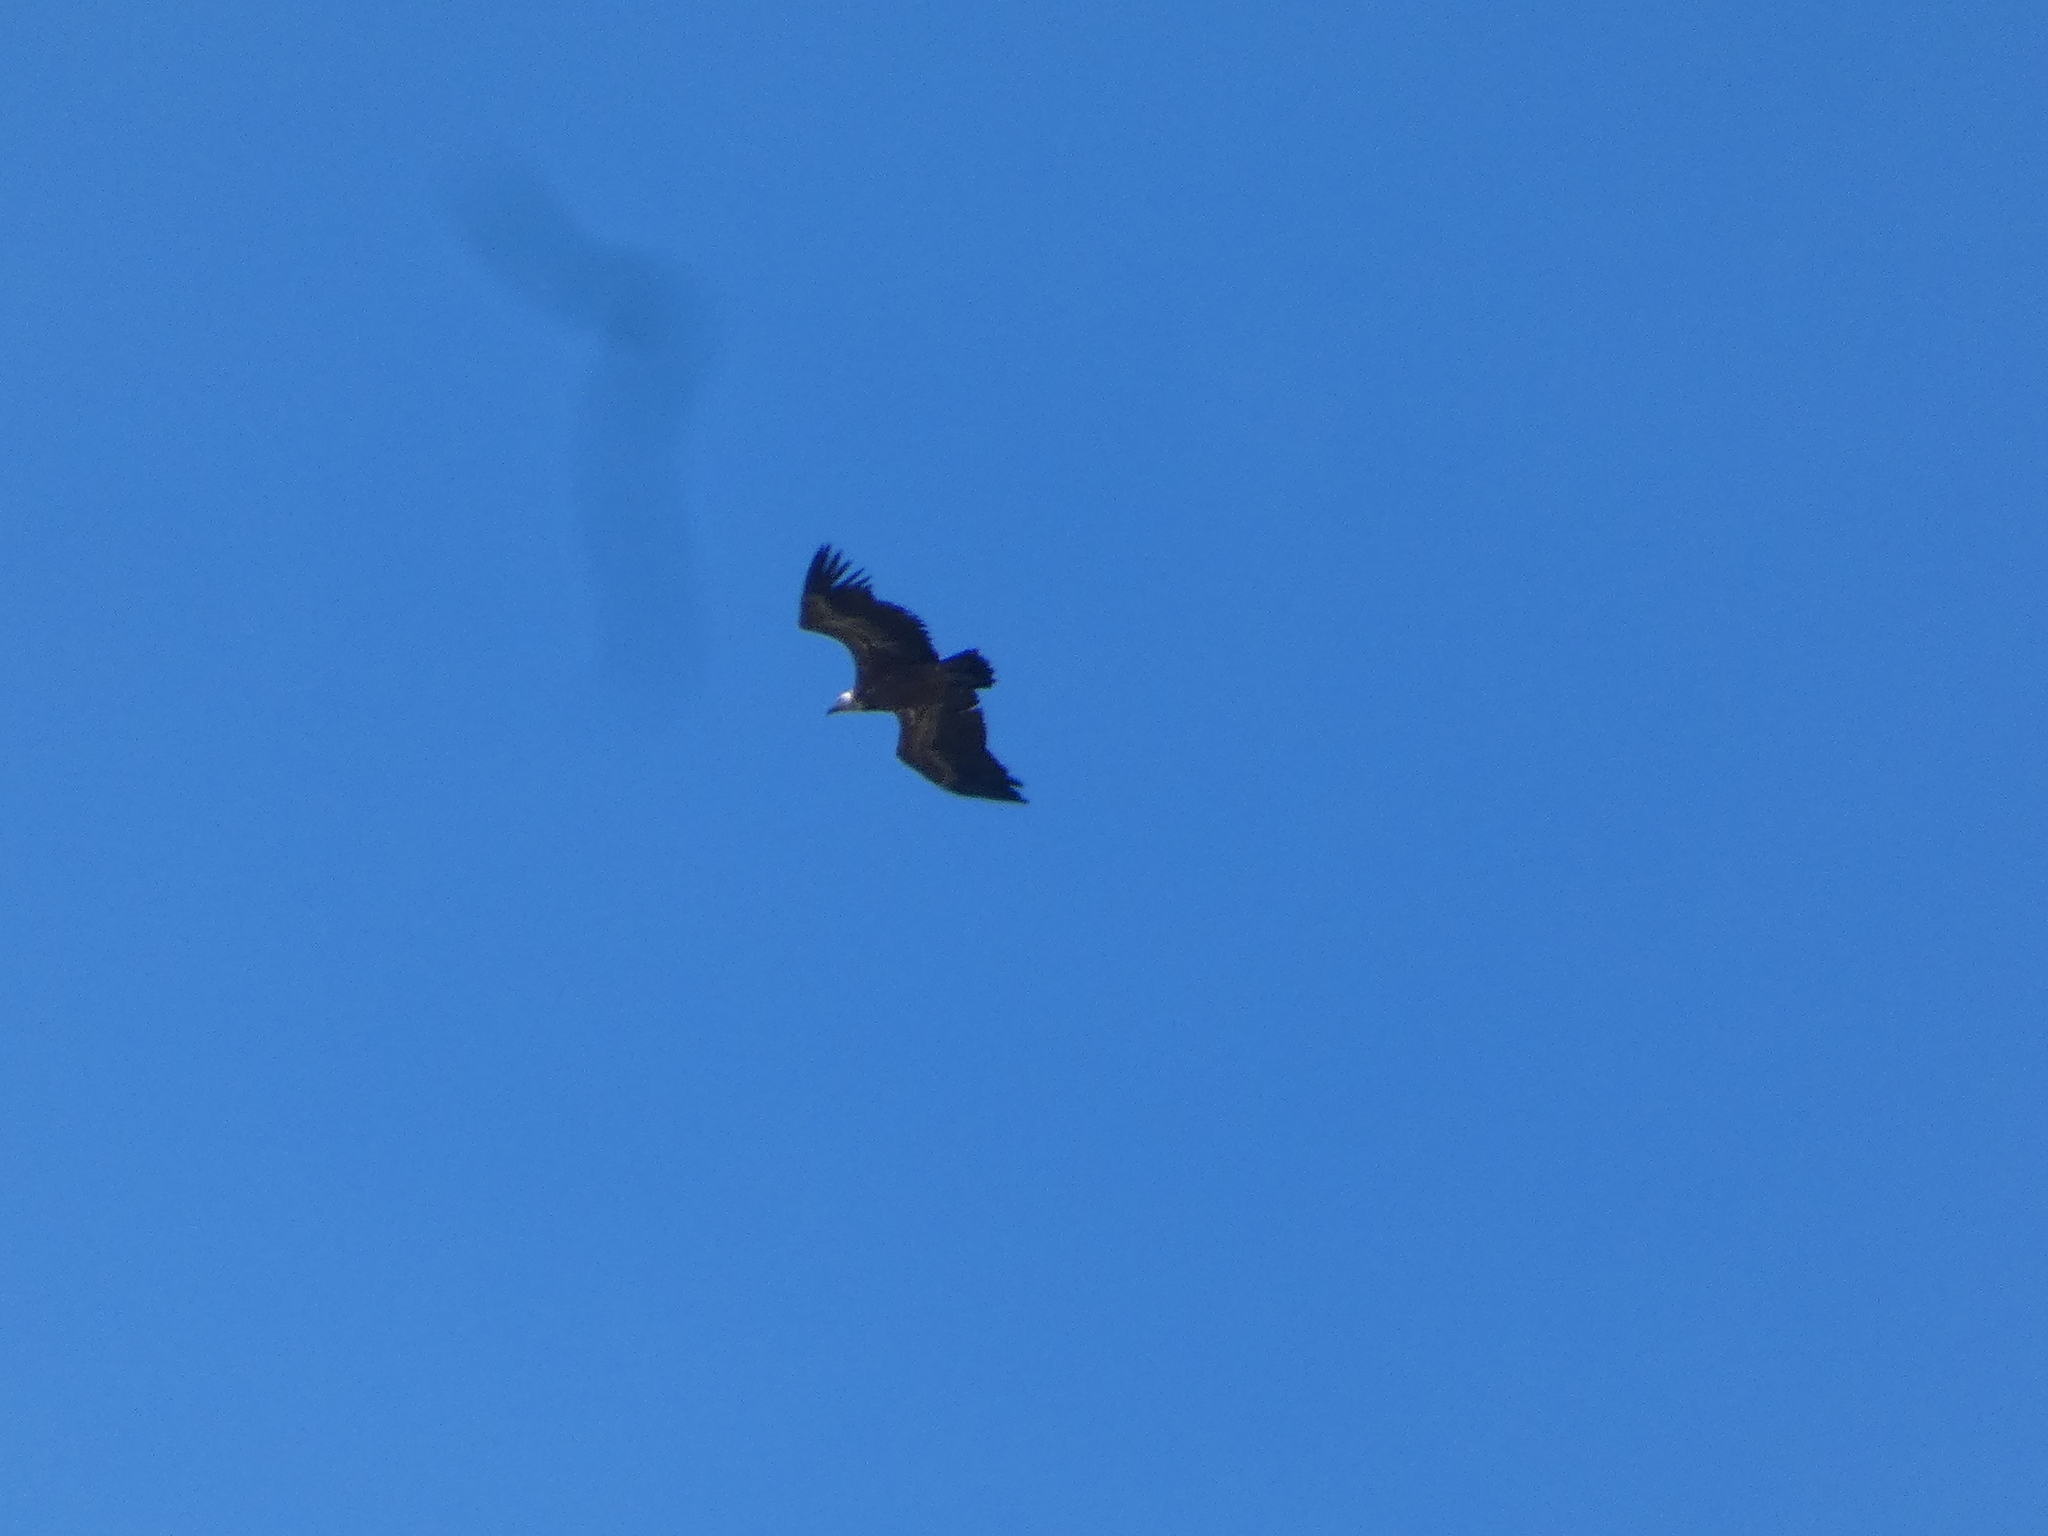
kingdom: Animalia
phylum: Chordata
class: Aves
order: Accipitriformes
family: Accipitridae
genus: Gyps
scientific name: Gyps fulvus
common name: Griffon vulture
